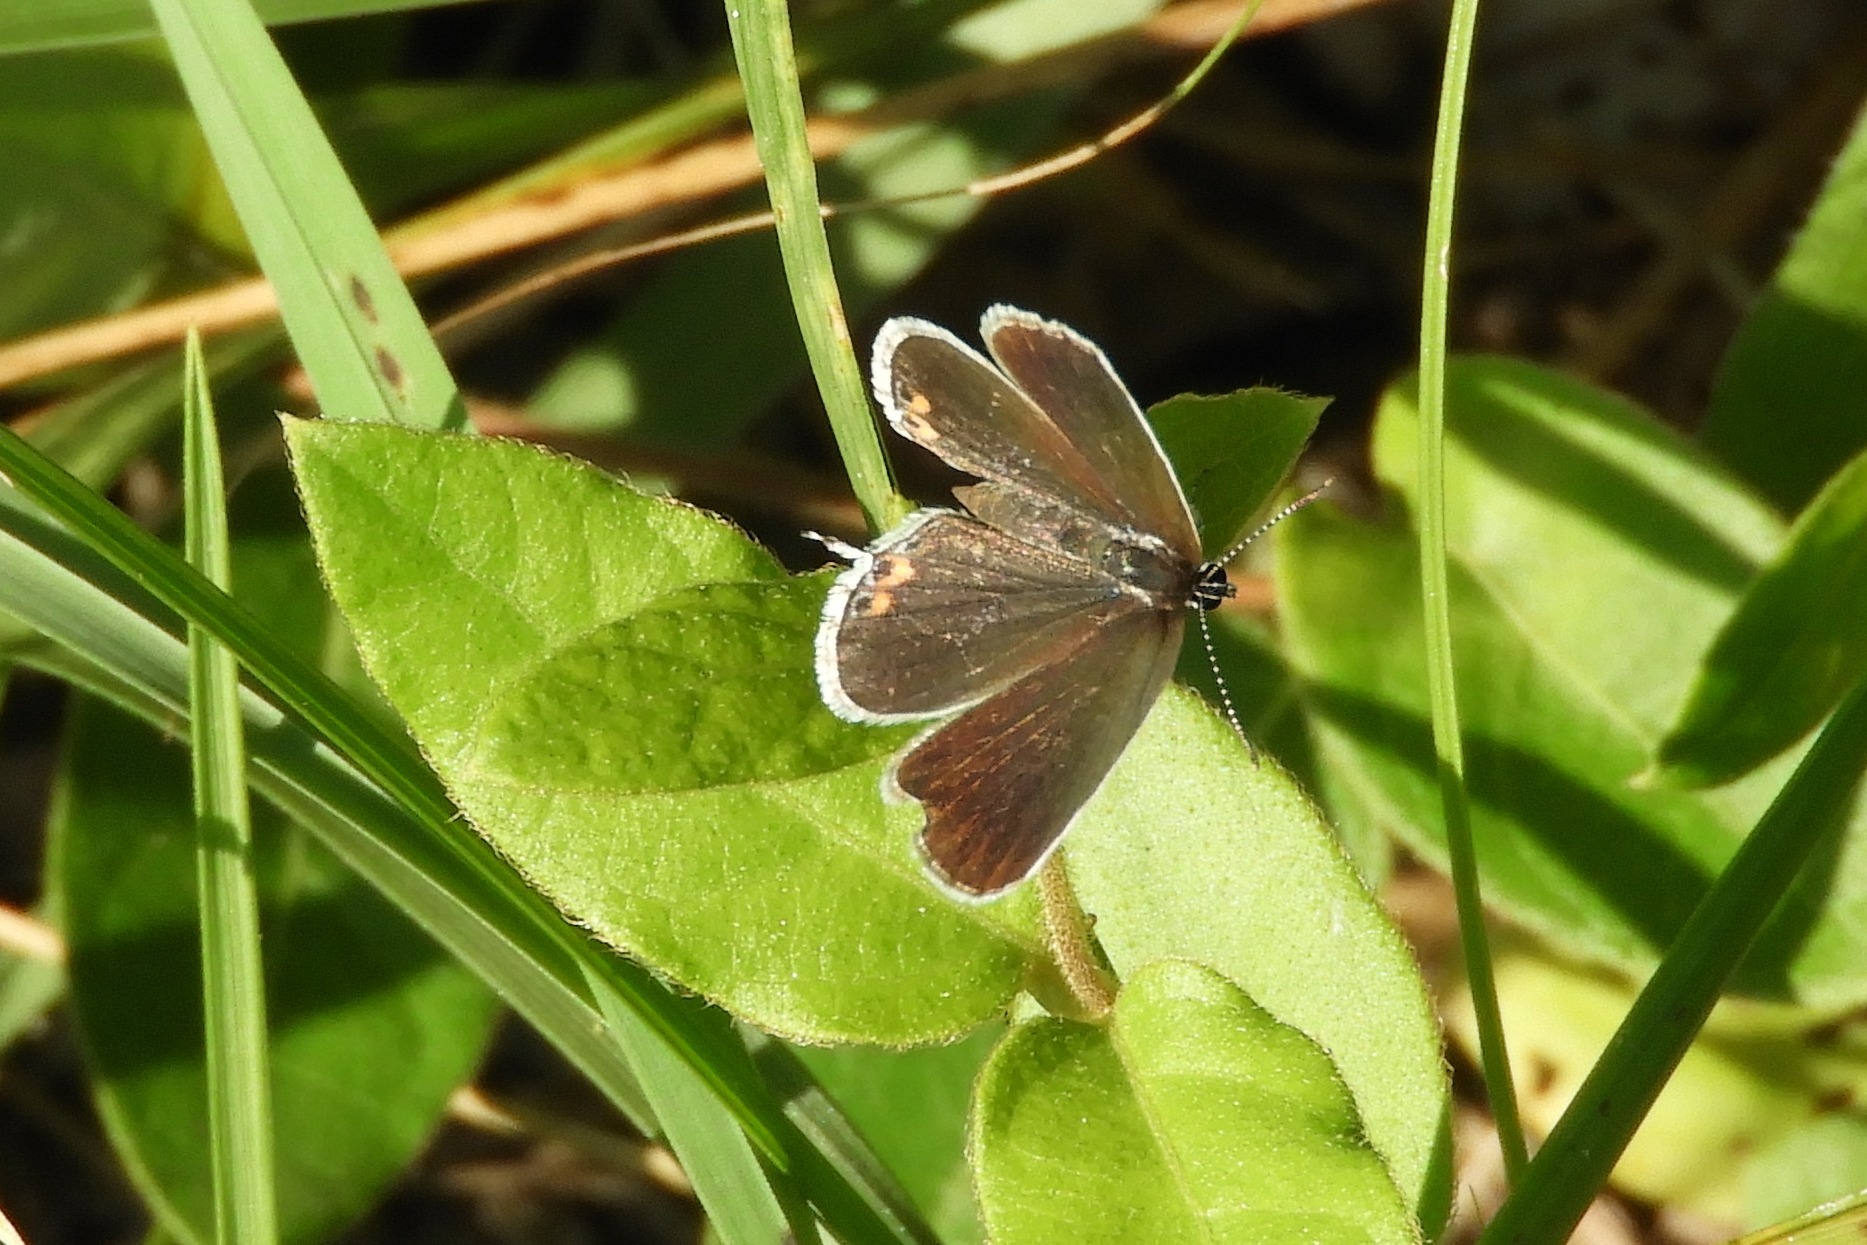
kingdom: Animalia
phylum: Arthropoda
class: Insecta
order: Lepidoptera
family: Lycaenidae
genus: Elkalyce
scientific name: Elkalyce comyntas
